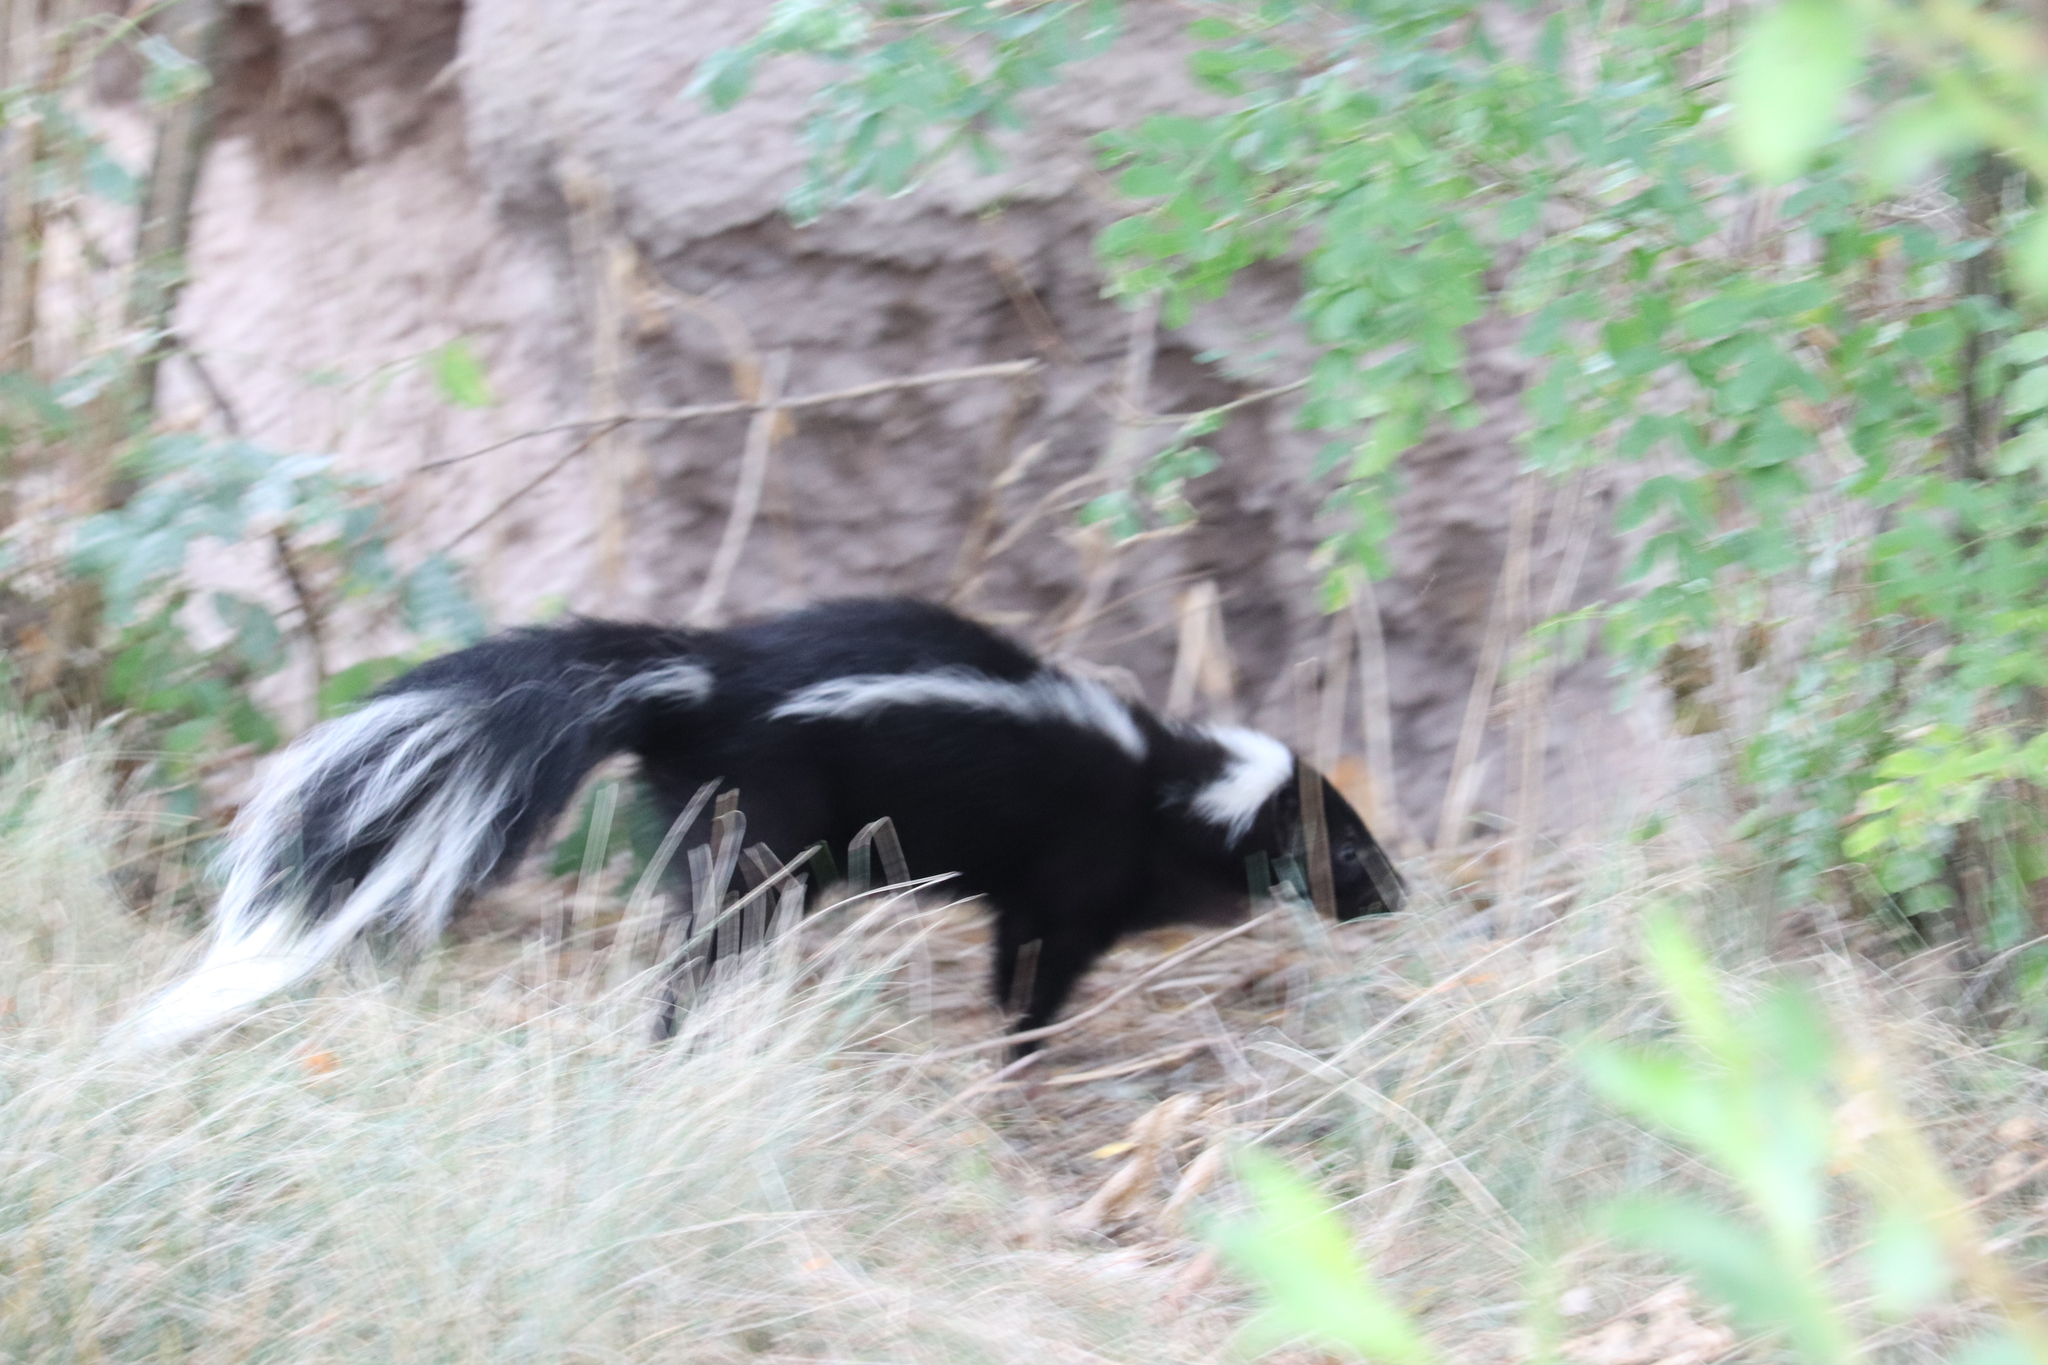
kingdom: Animalia
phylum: Chordata
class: Mammalia
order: Carnivora
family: Mephitidae
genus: Mephitis
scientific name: Mephitis mephitis
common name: Striped skunk
